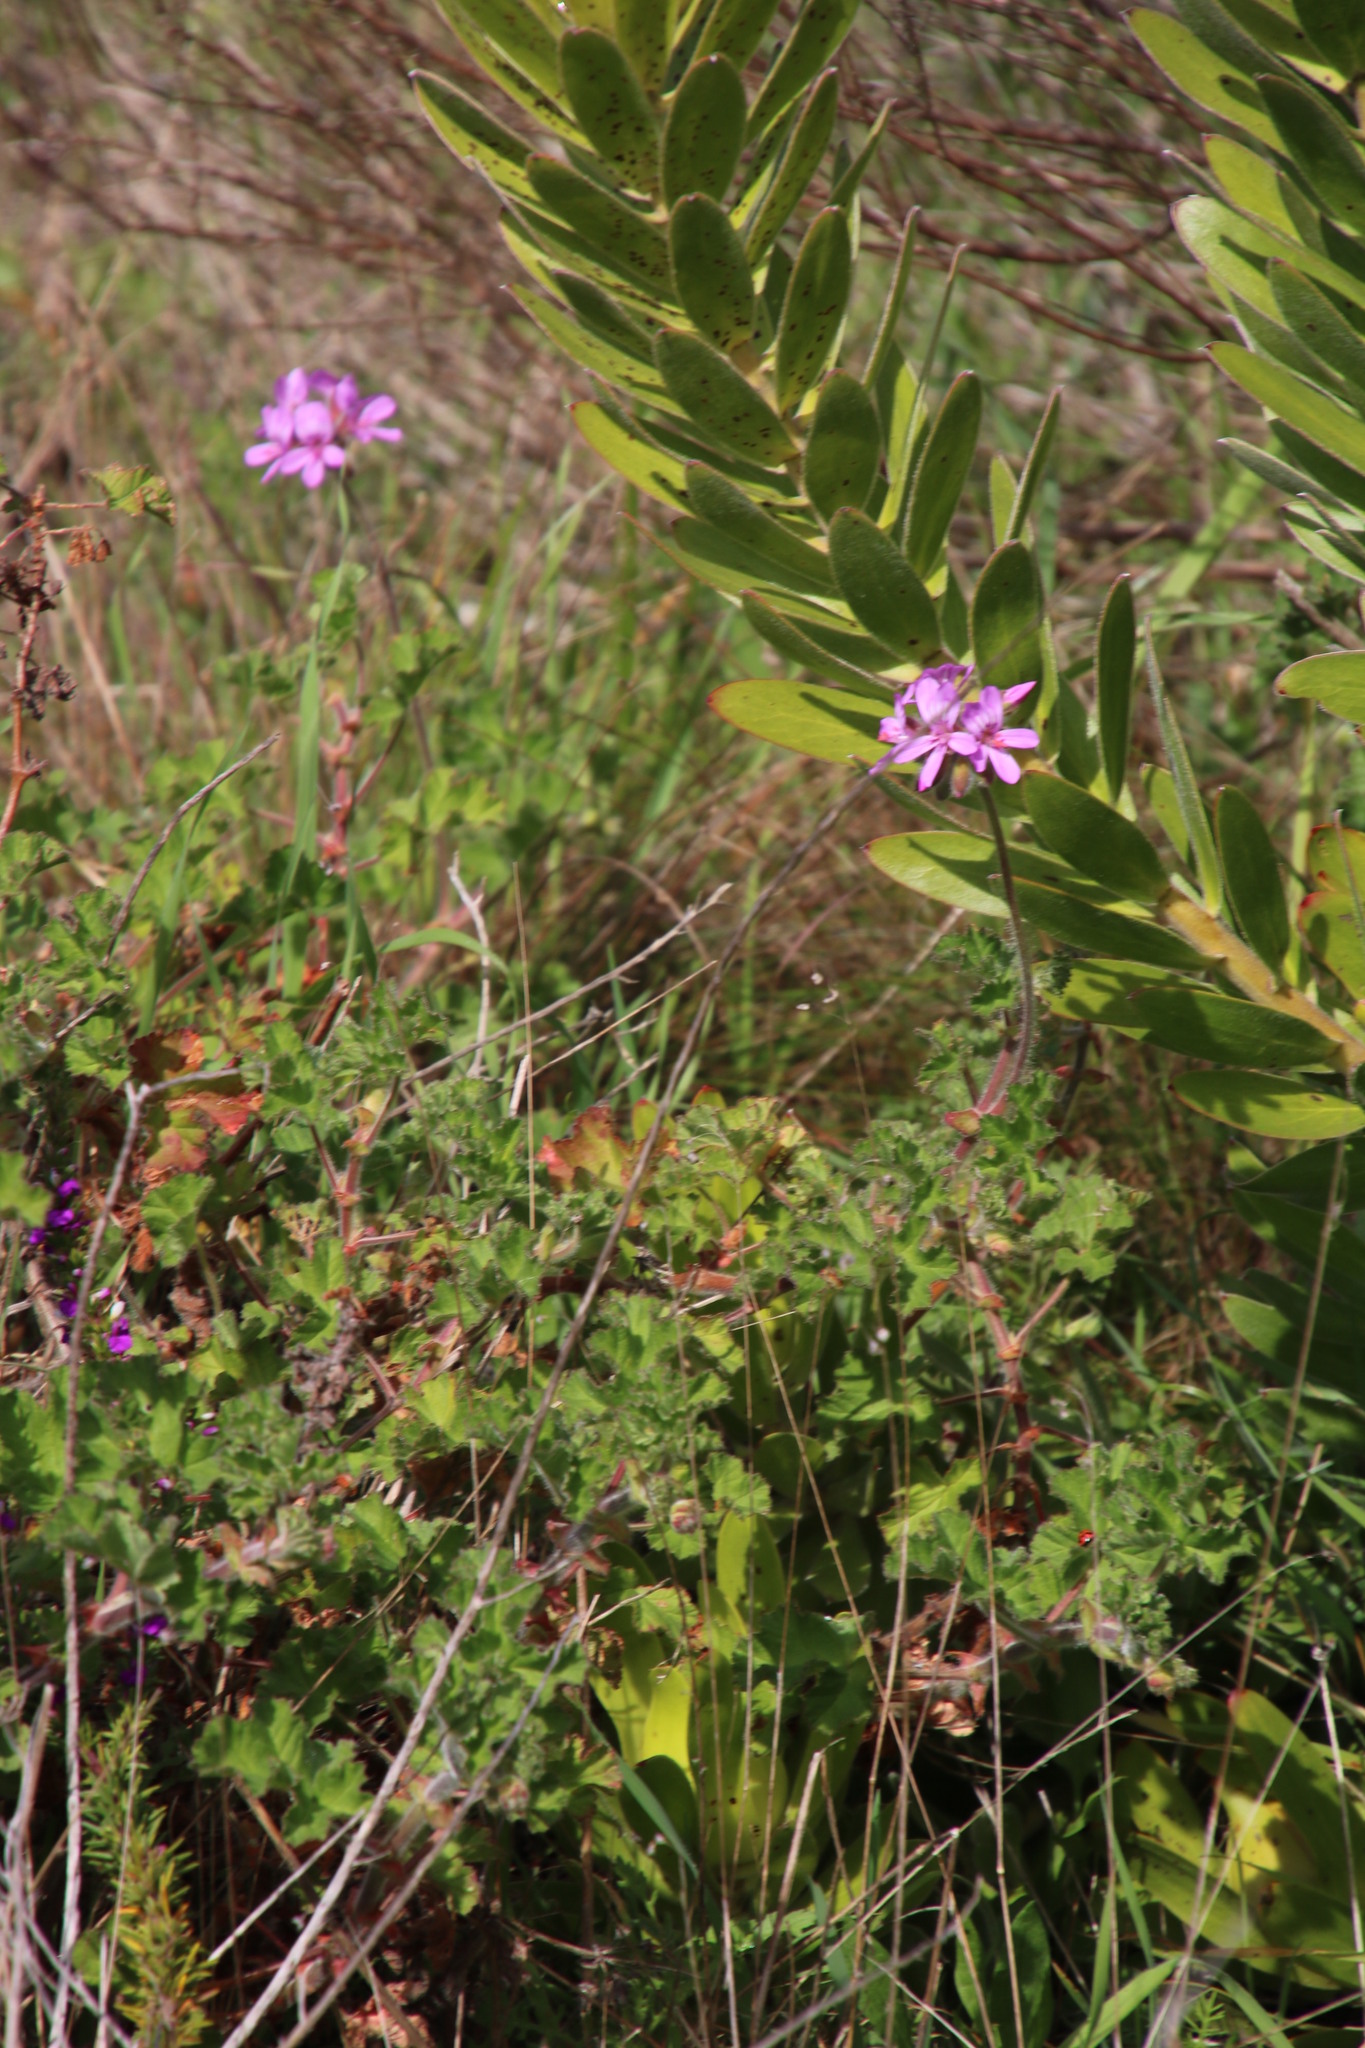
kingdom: Plantae
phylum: Tracheophyta
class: Magnoliopsida
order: Geraniales
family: Geraniaceae
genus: Pelargonium
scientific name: Pelargonium capitatum
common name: Rose scented geranium
